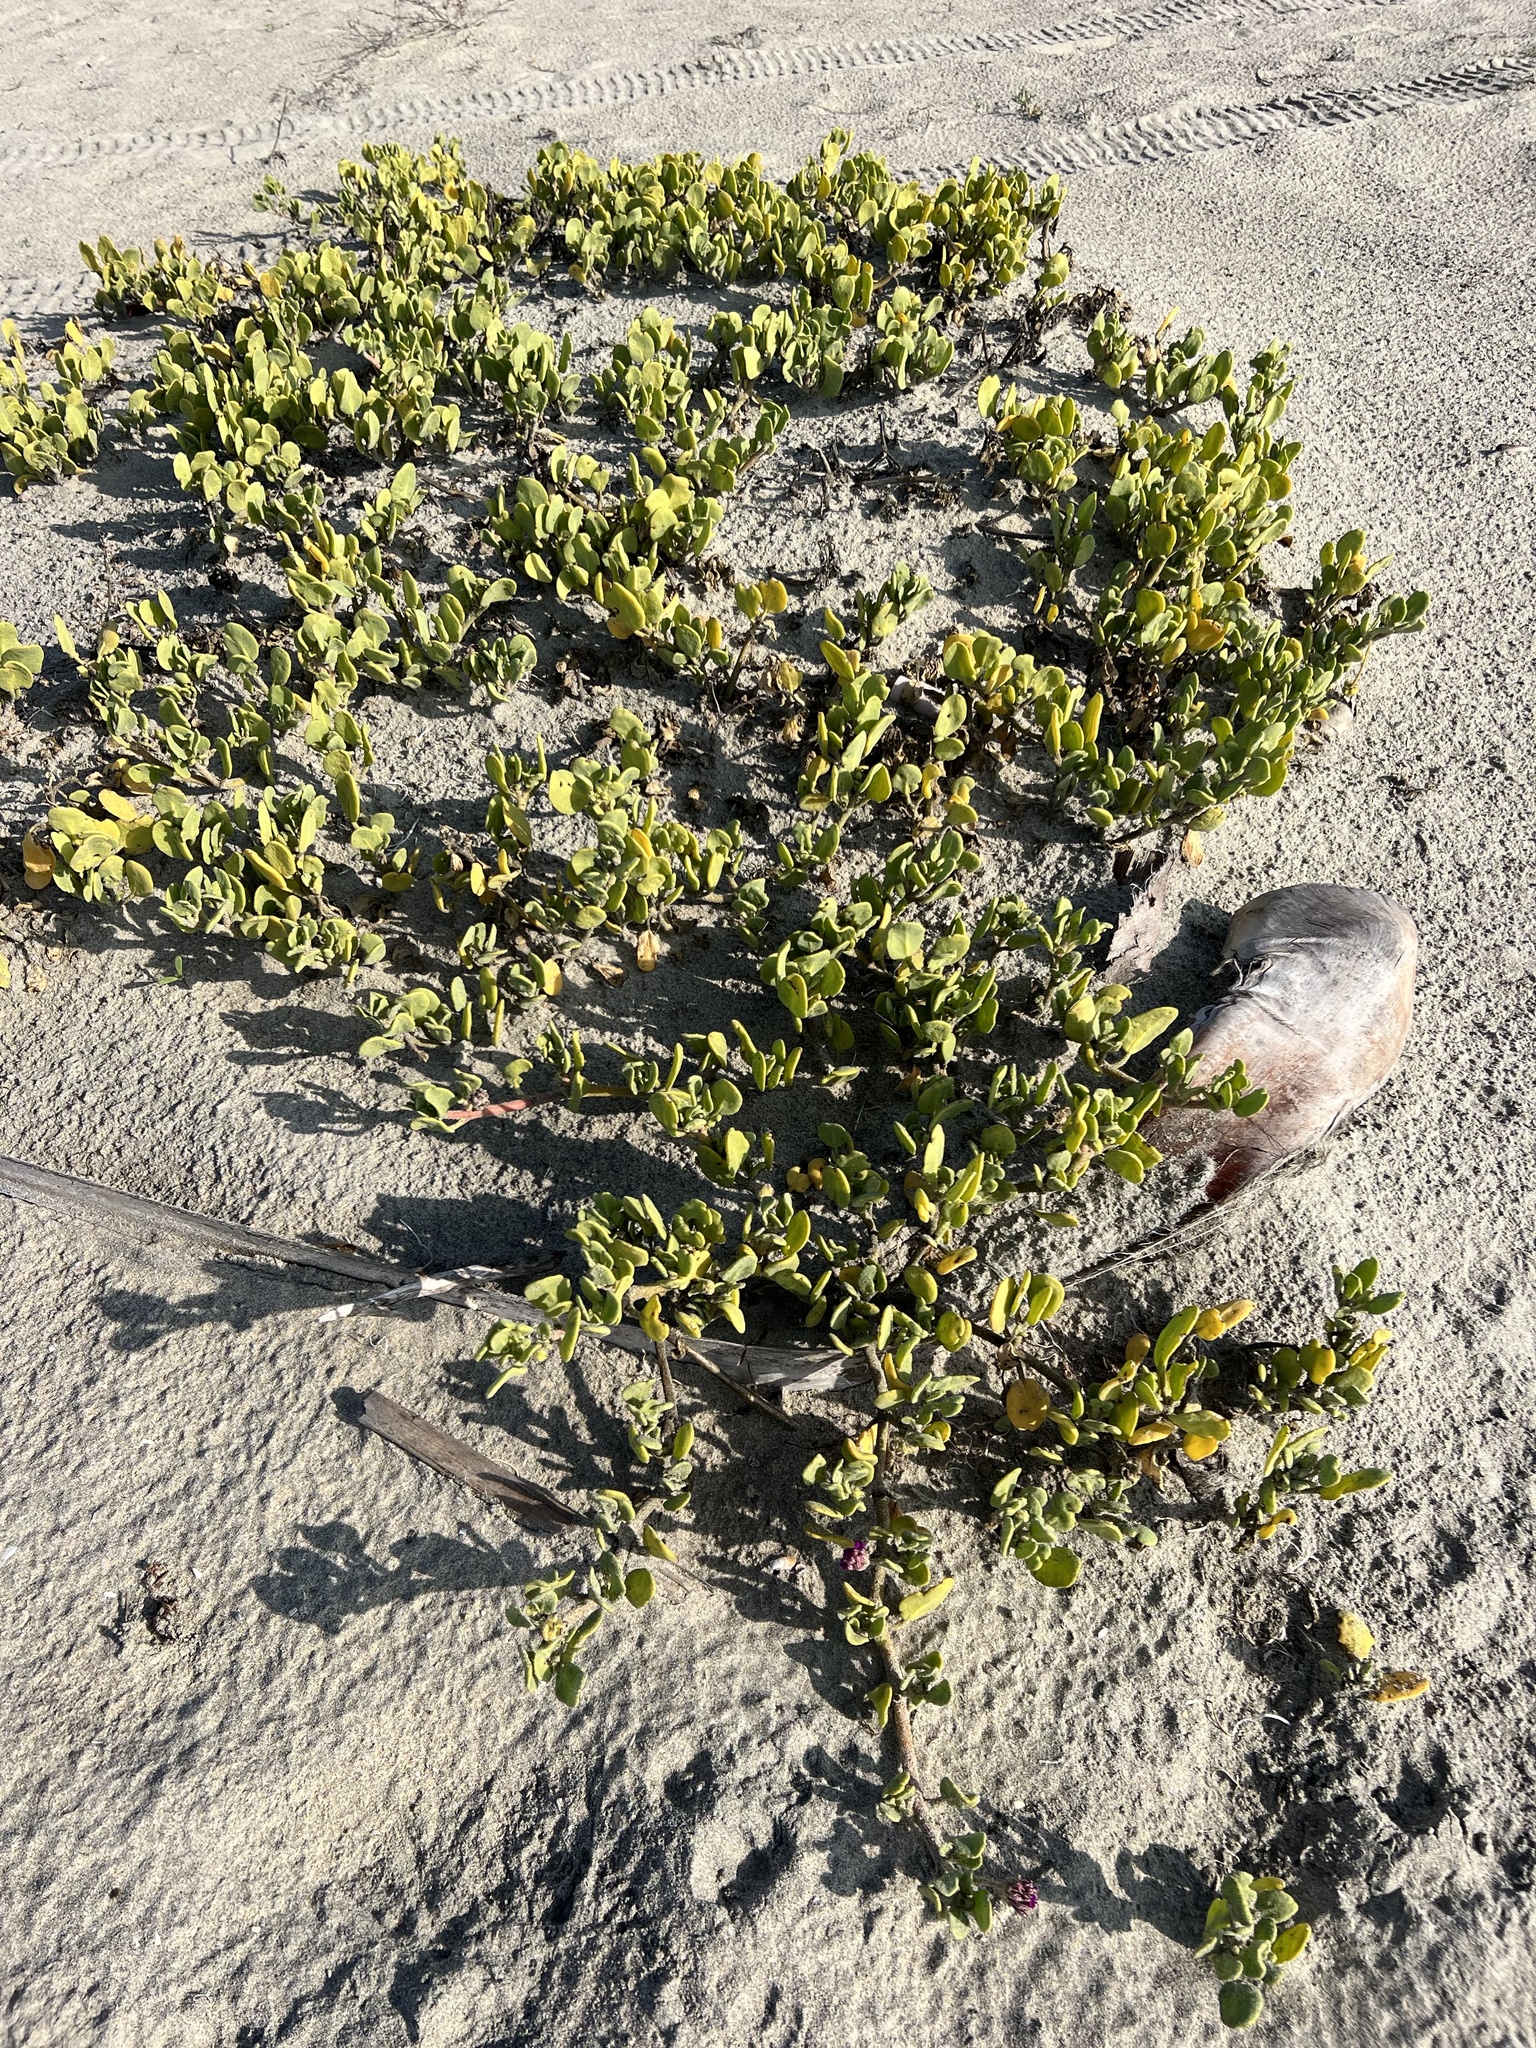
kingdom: Plantae
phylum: Tracheophyta
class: Magnoliopsida
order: Caryophyllales
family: Nyctaginaceae
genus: Abronia
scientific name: Abronia maritima
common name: Red sand-verbena
